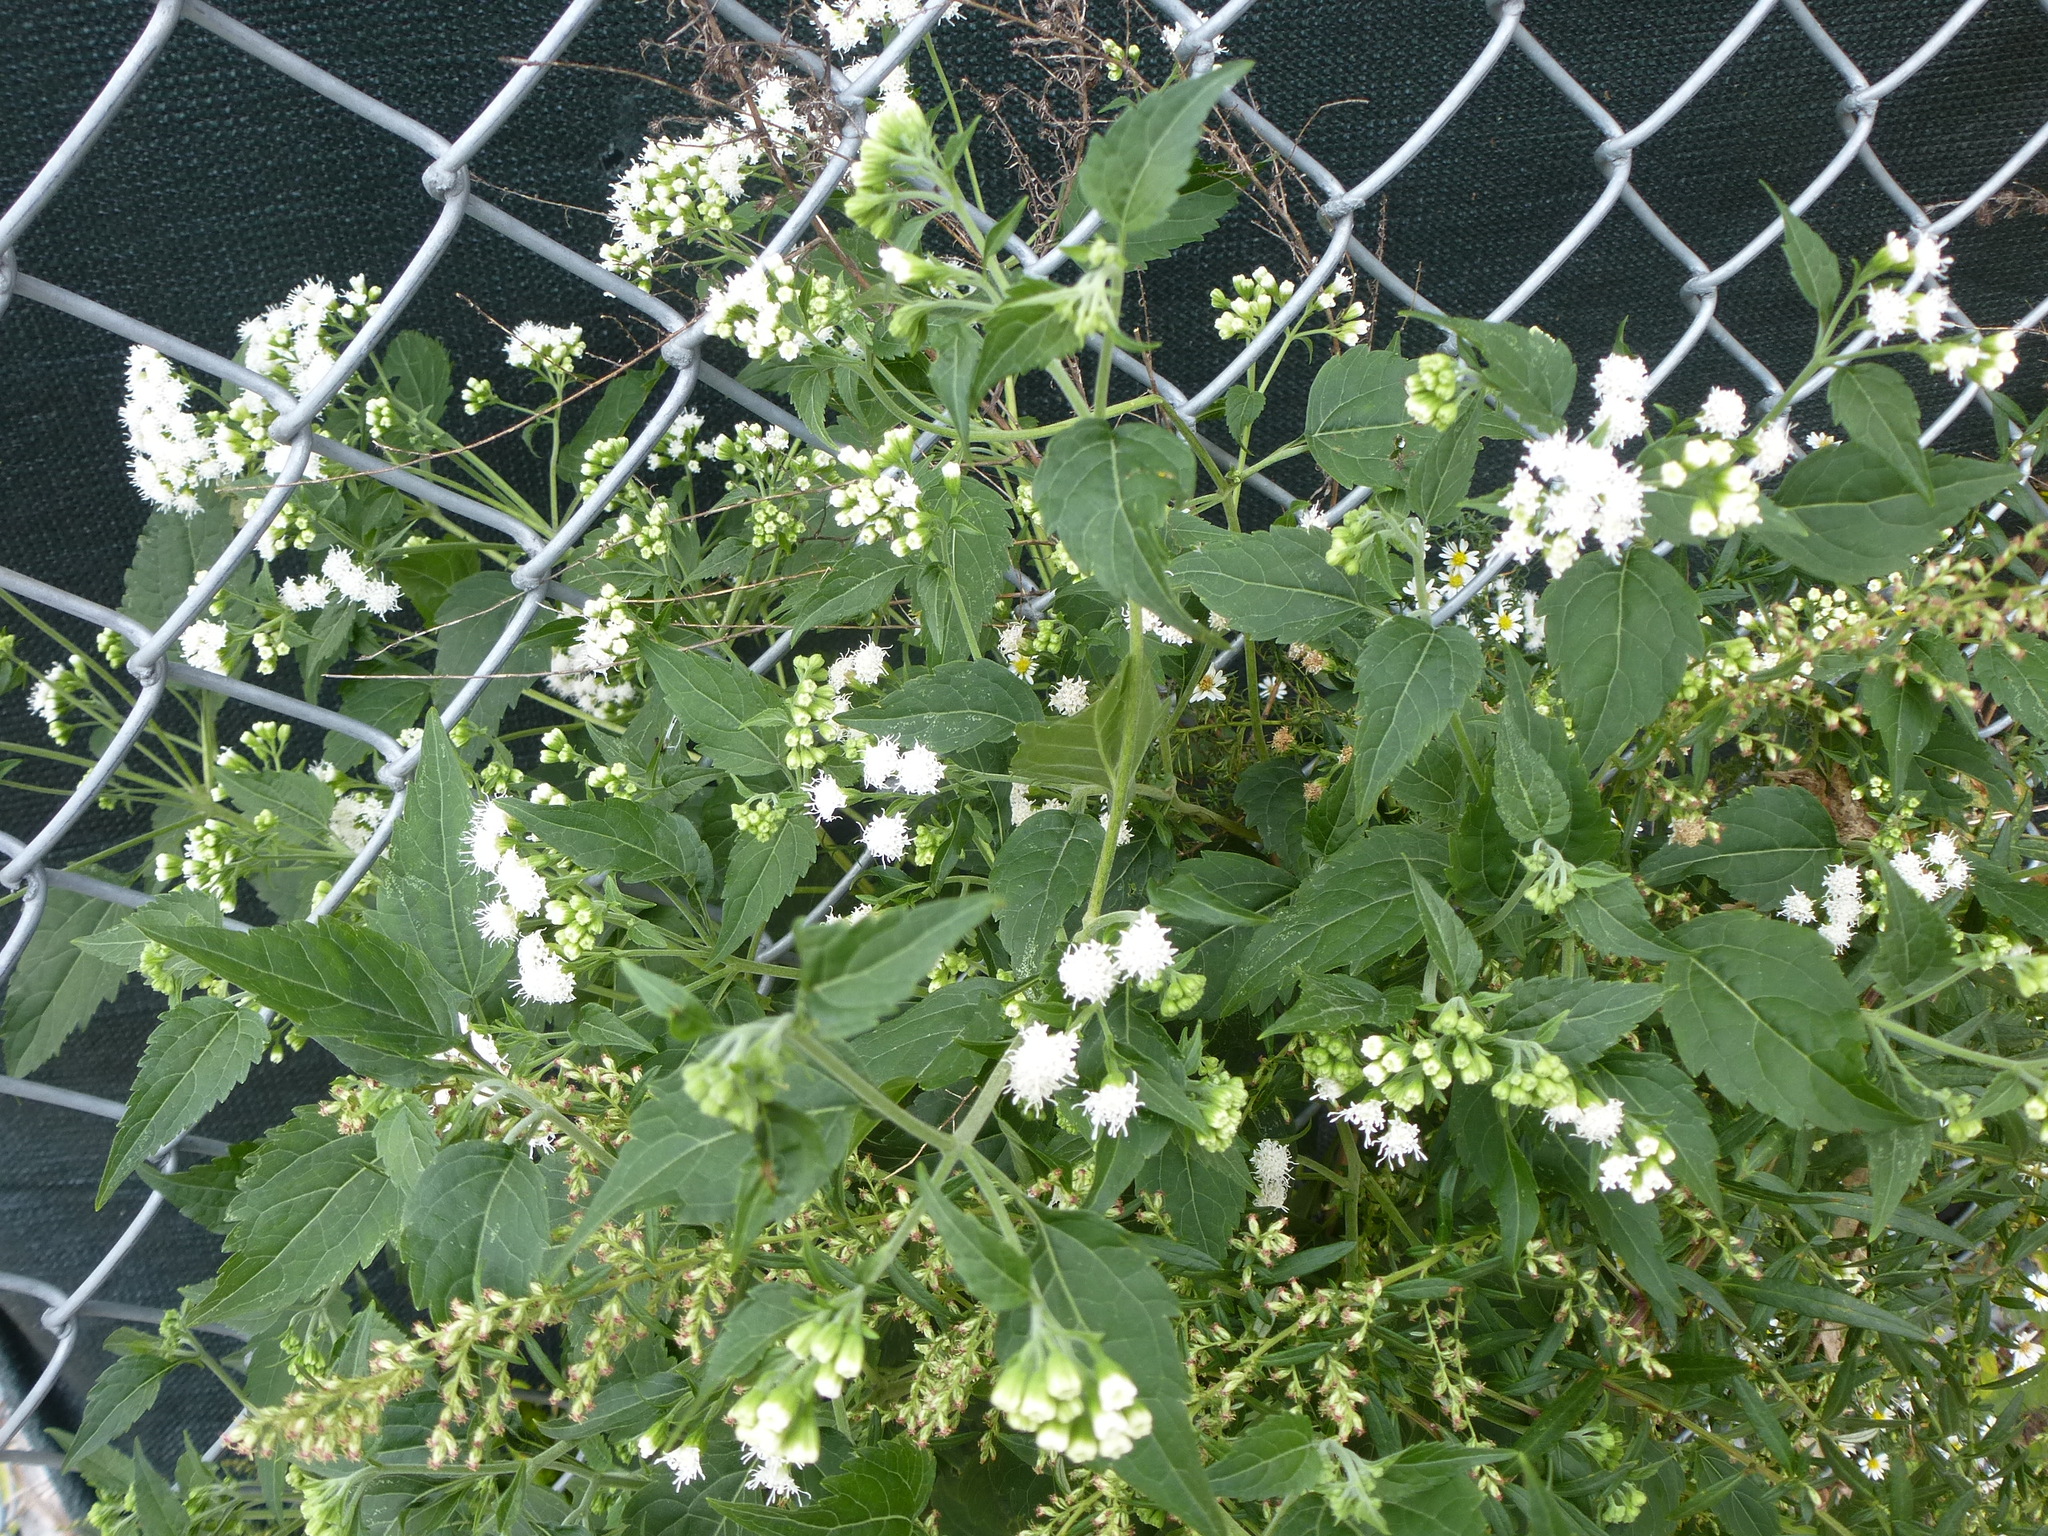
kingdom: Plantae
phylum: Tracheophyta
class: Magnoliopsida
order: Asterales
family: Asteraceae
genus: Ageratina
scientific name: Ageratina altissima
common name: White snakeroot
